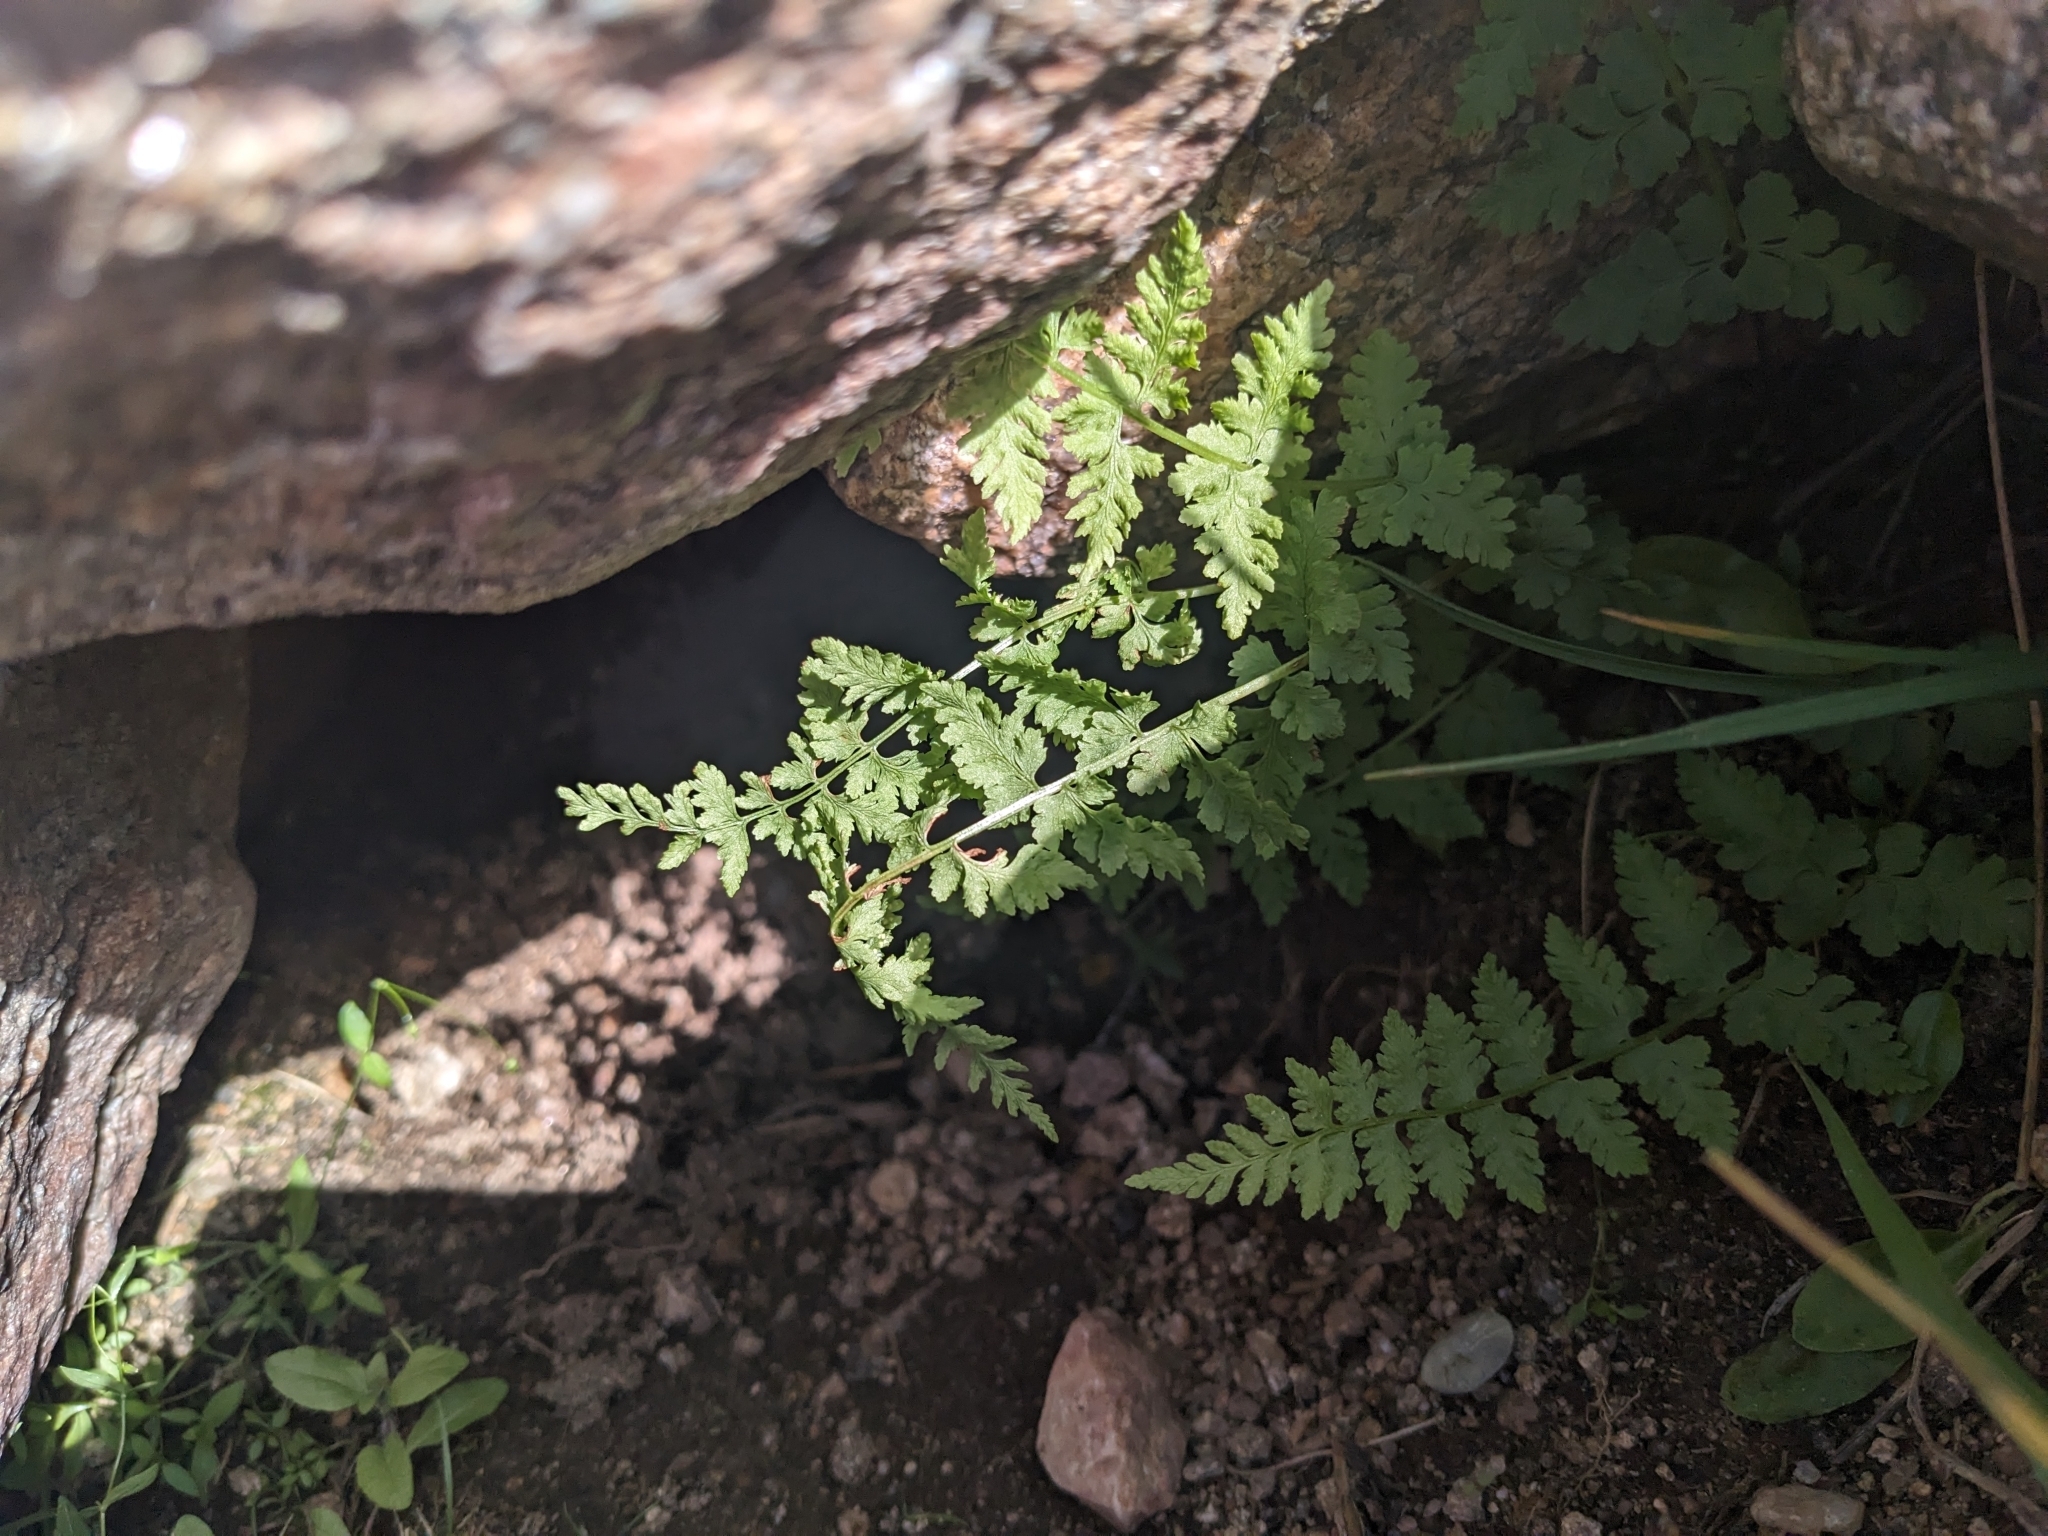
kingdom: Plantae
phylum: Tracheophyta
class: Polypodiopsida
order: Polypodiales
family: Cystopteridaceae
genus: Cystopteris
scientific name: Cystopteris fragilis
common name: Brittle bladder fern
